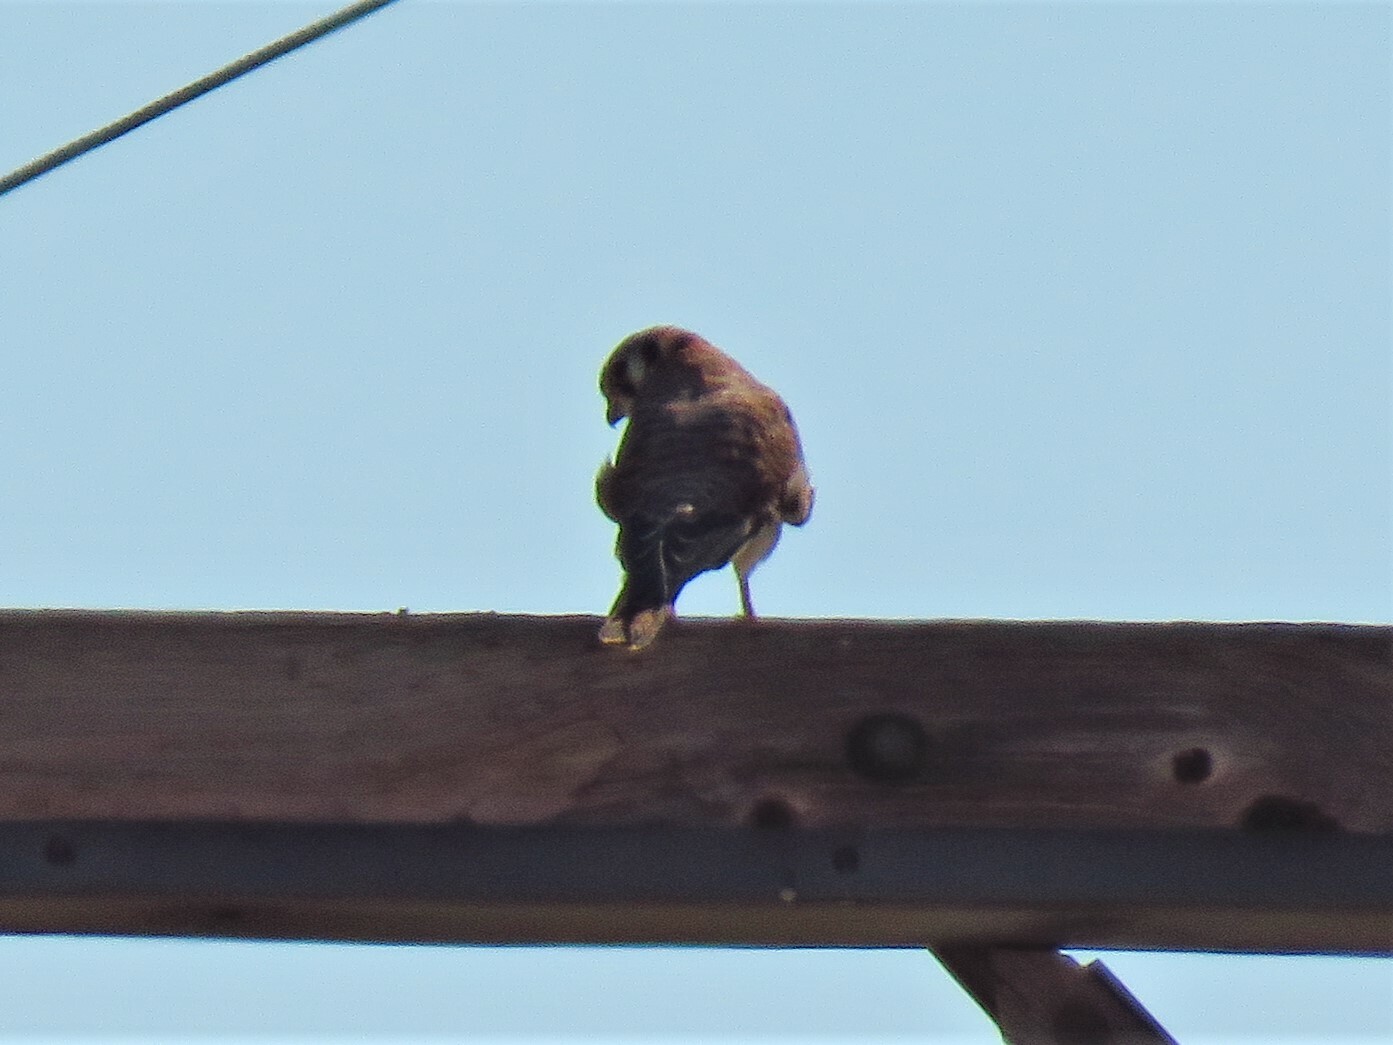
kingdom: Animalia
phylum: Chordata
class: Aves
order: Falconiformes
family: Falconidae
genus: Falco
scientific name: Falco sparverius
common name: American kestrel
